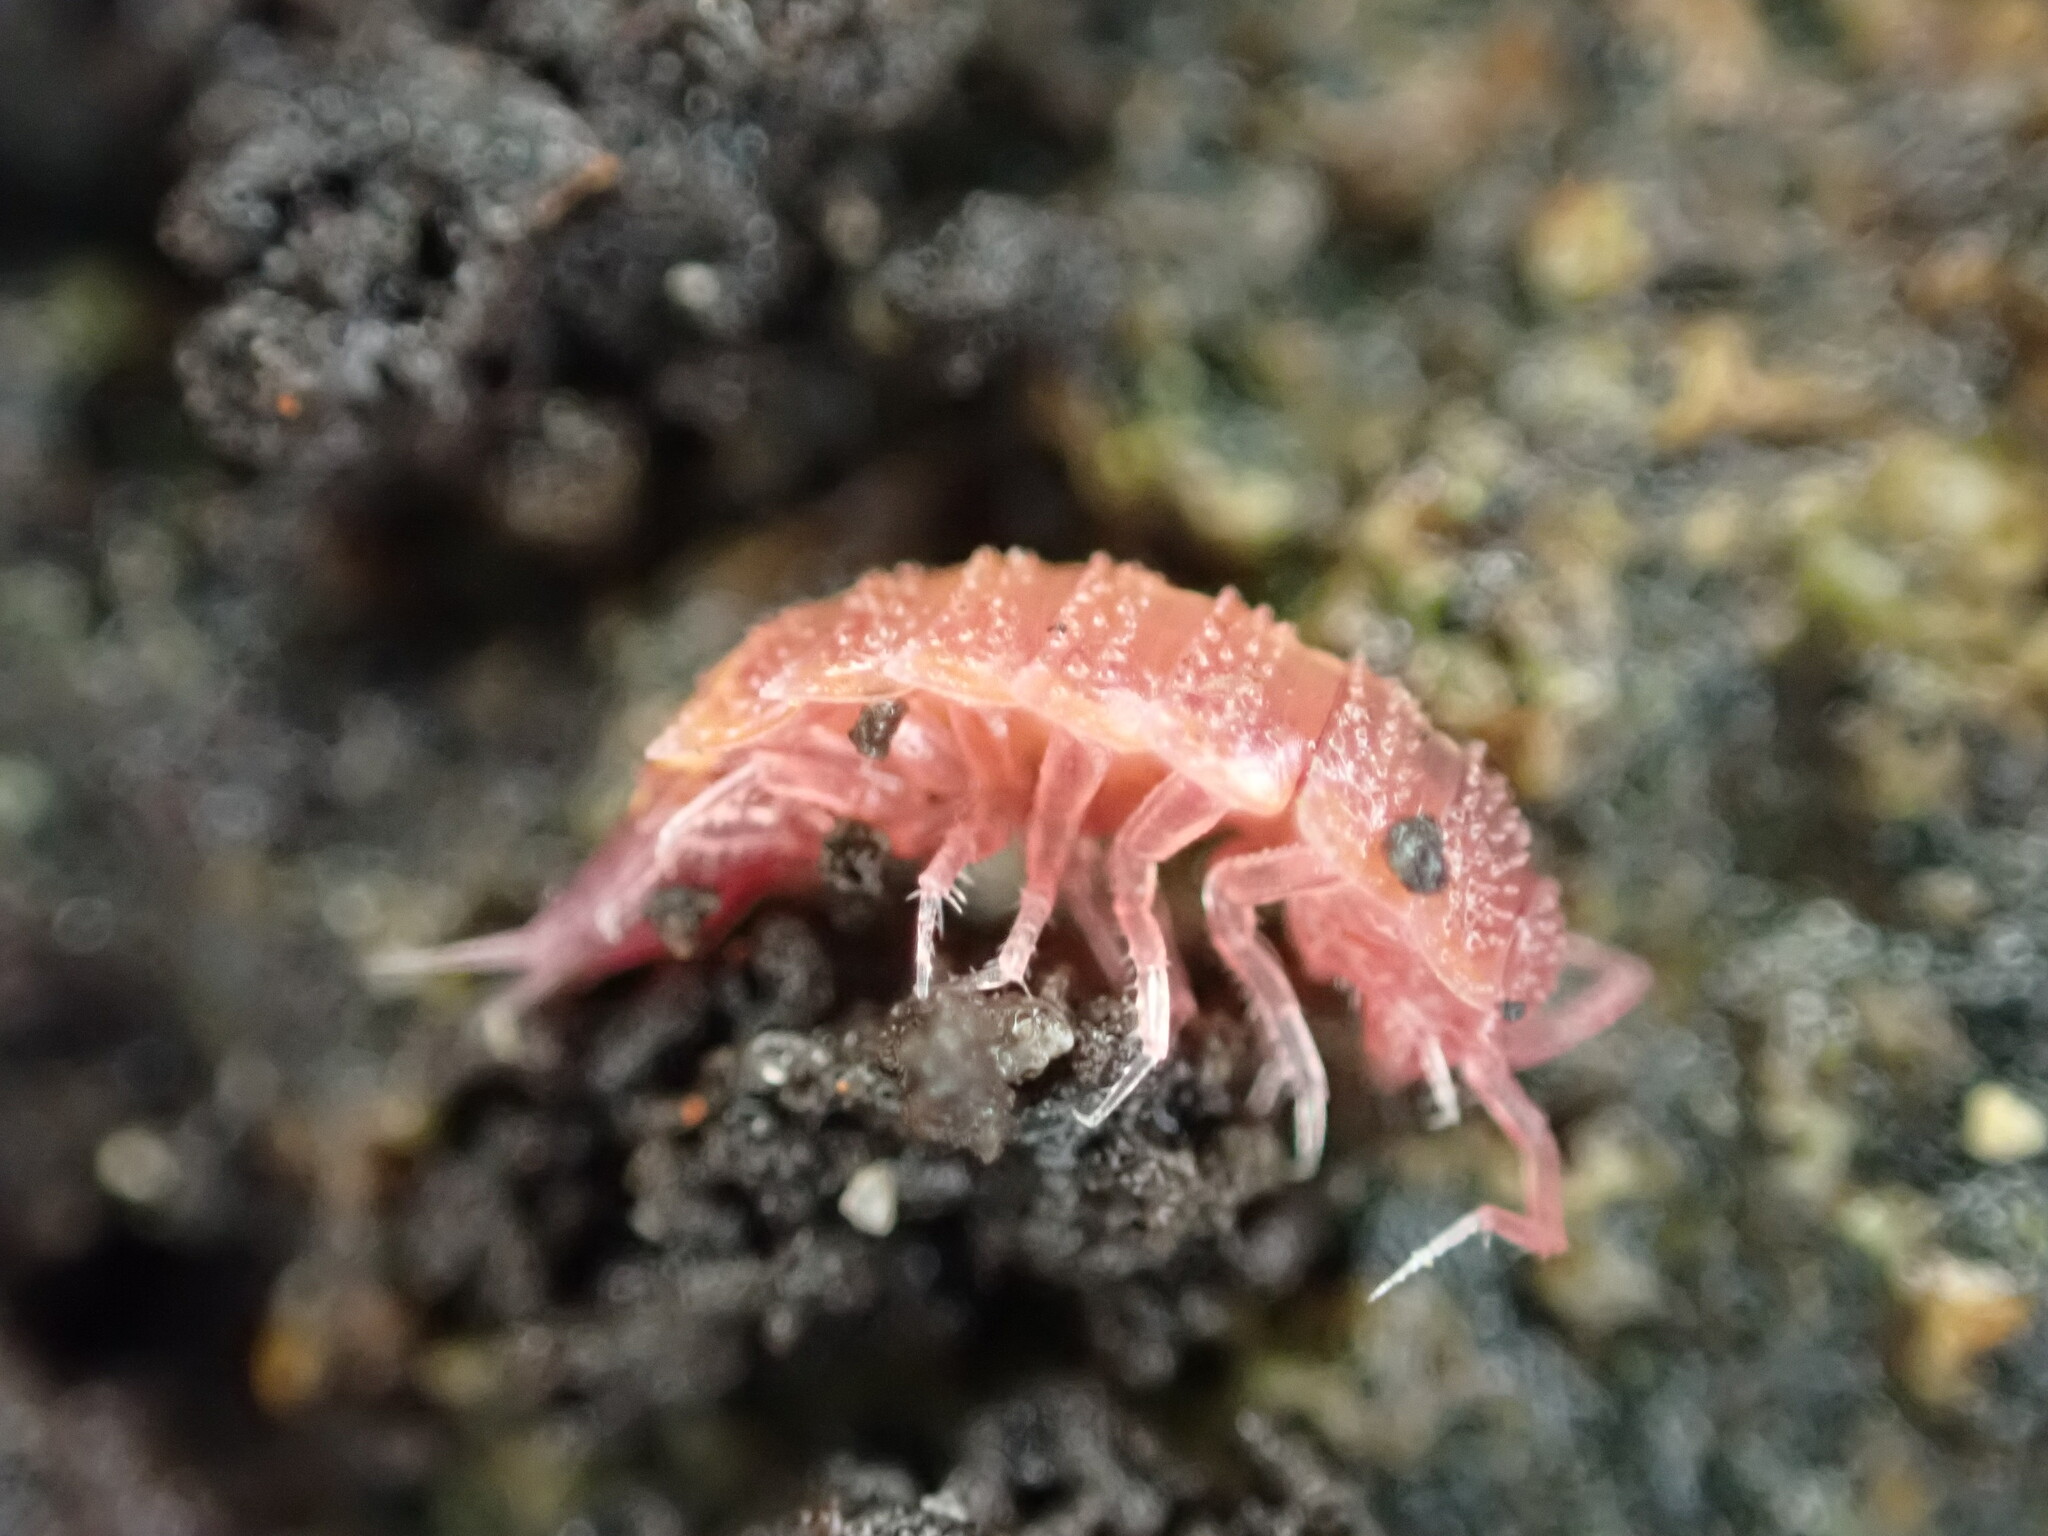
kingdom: Animalia
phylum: Arthropoda
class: Malacostraca
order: Isopoda
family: Trichoniscidae
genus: Androniscus
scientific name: Androniscus dentiger
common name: Rosy woodlouse
